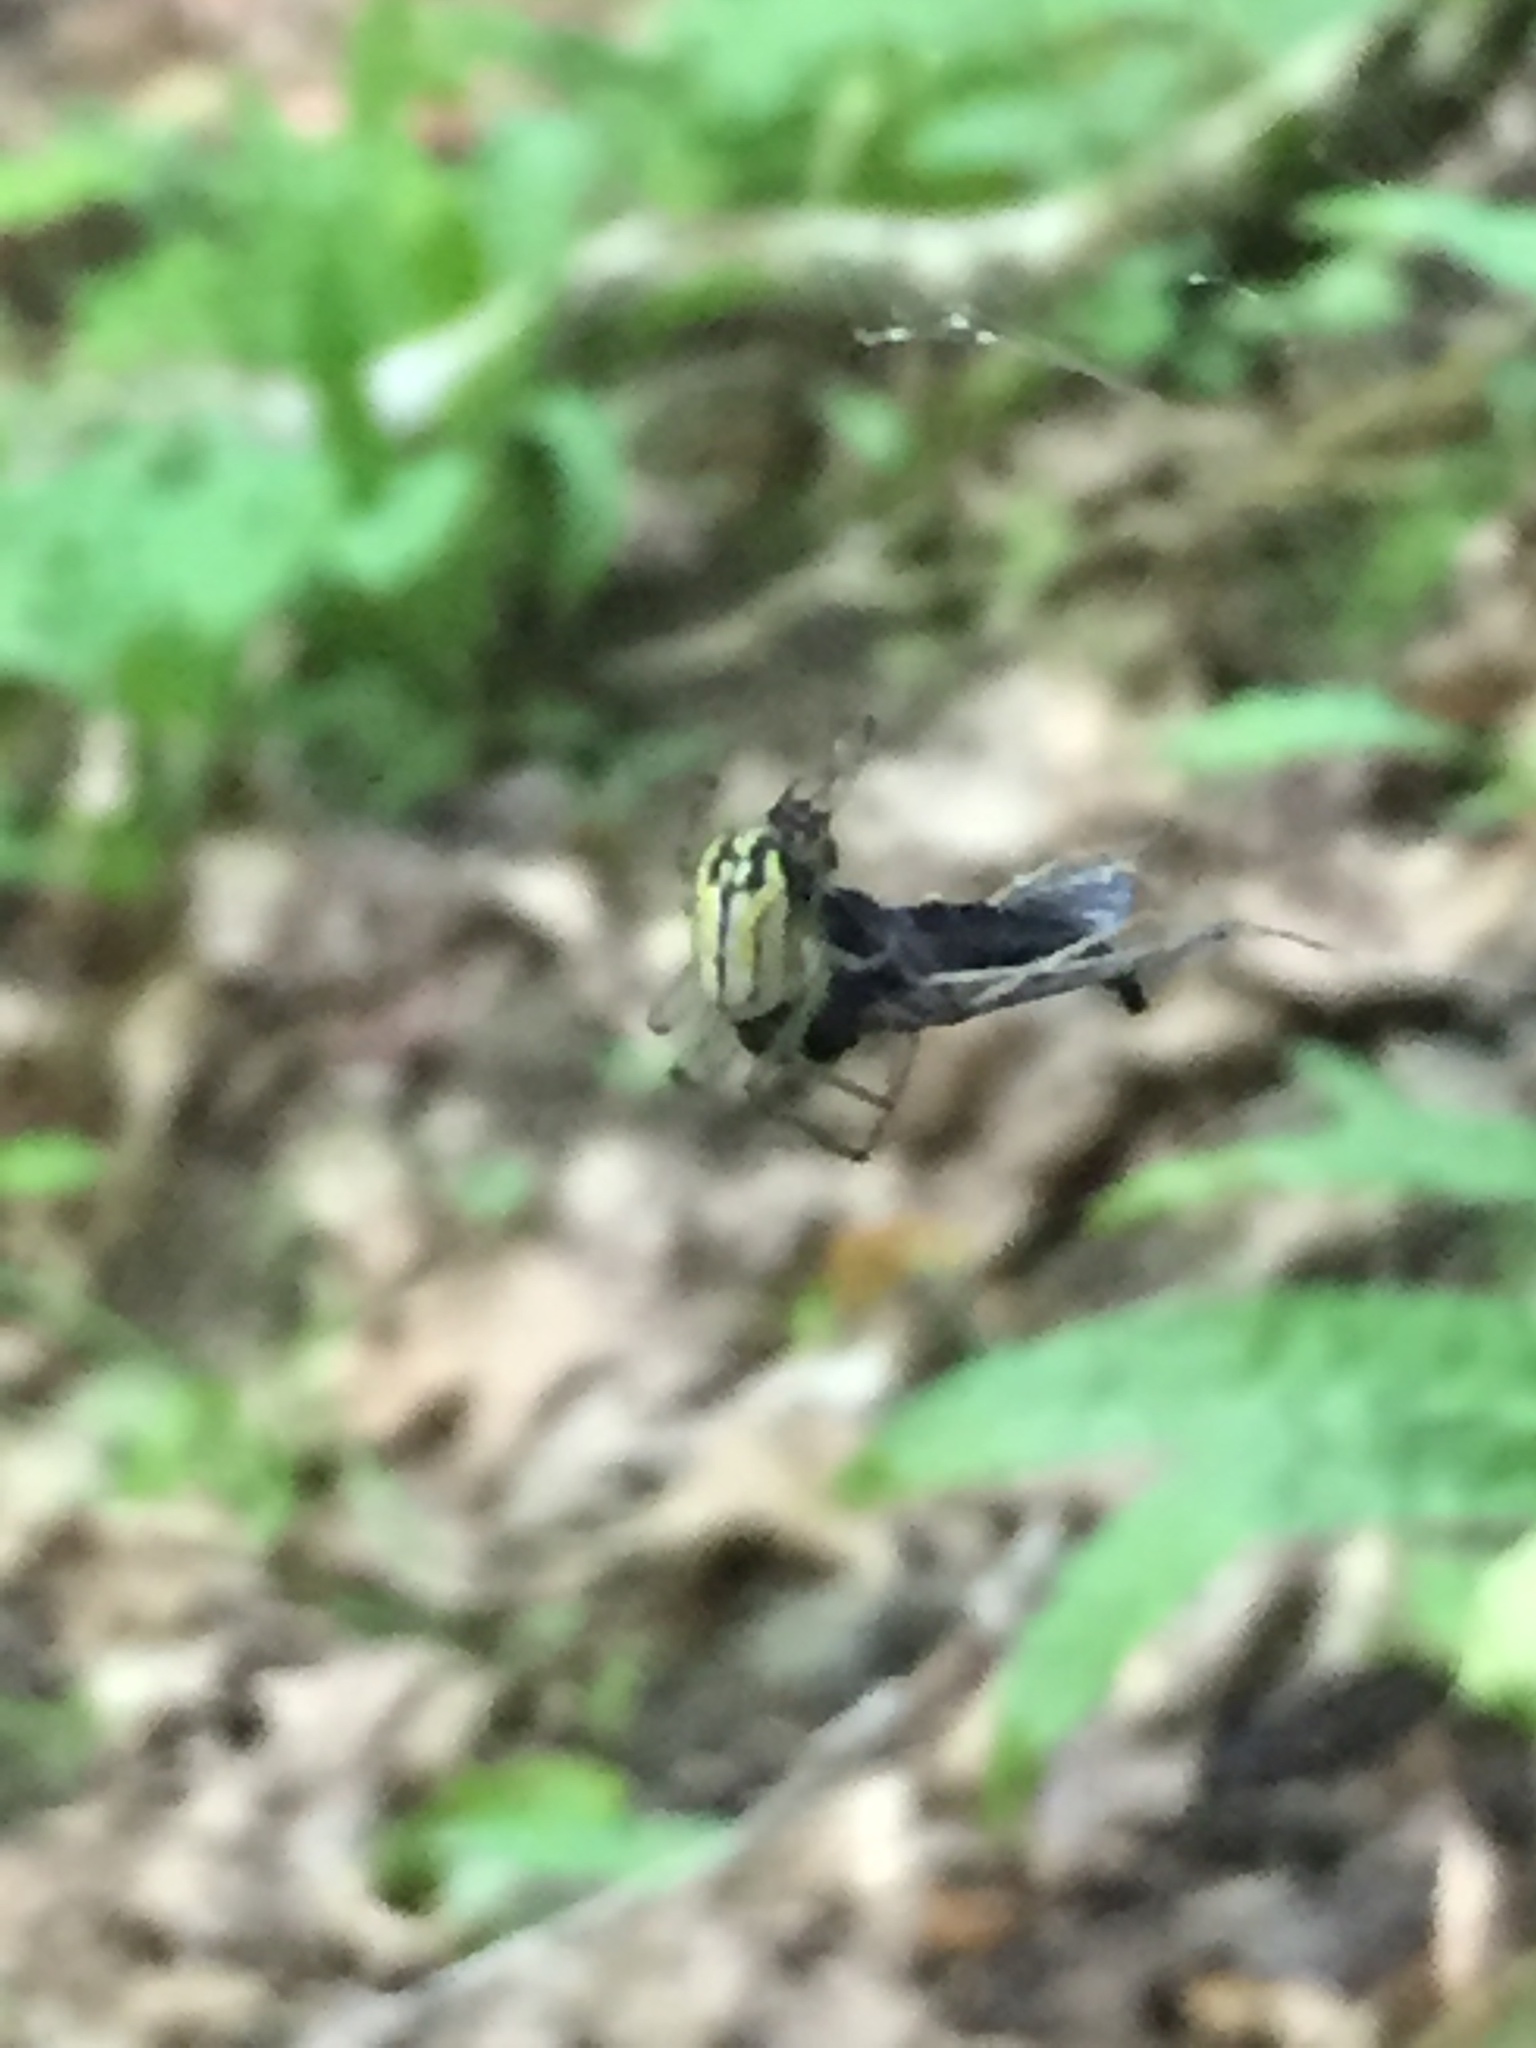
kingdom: Animalia
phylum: Arthropoda
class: Arachnida
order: Araneae
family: Tetragnathidae
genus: Leucauge
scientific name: Leucauge venusta
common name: Longjawed orb weavers
